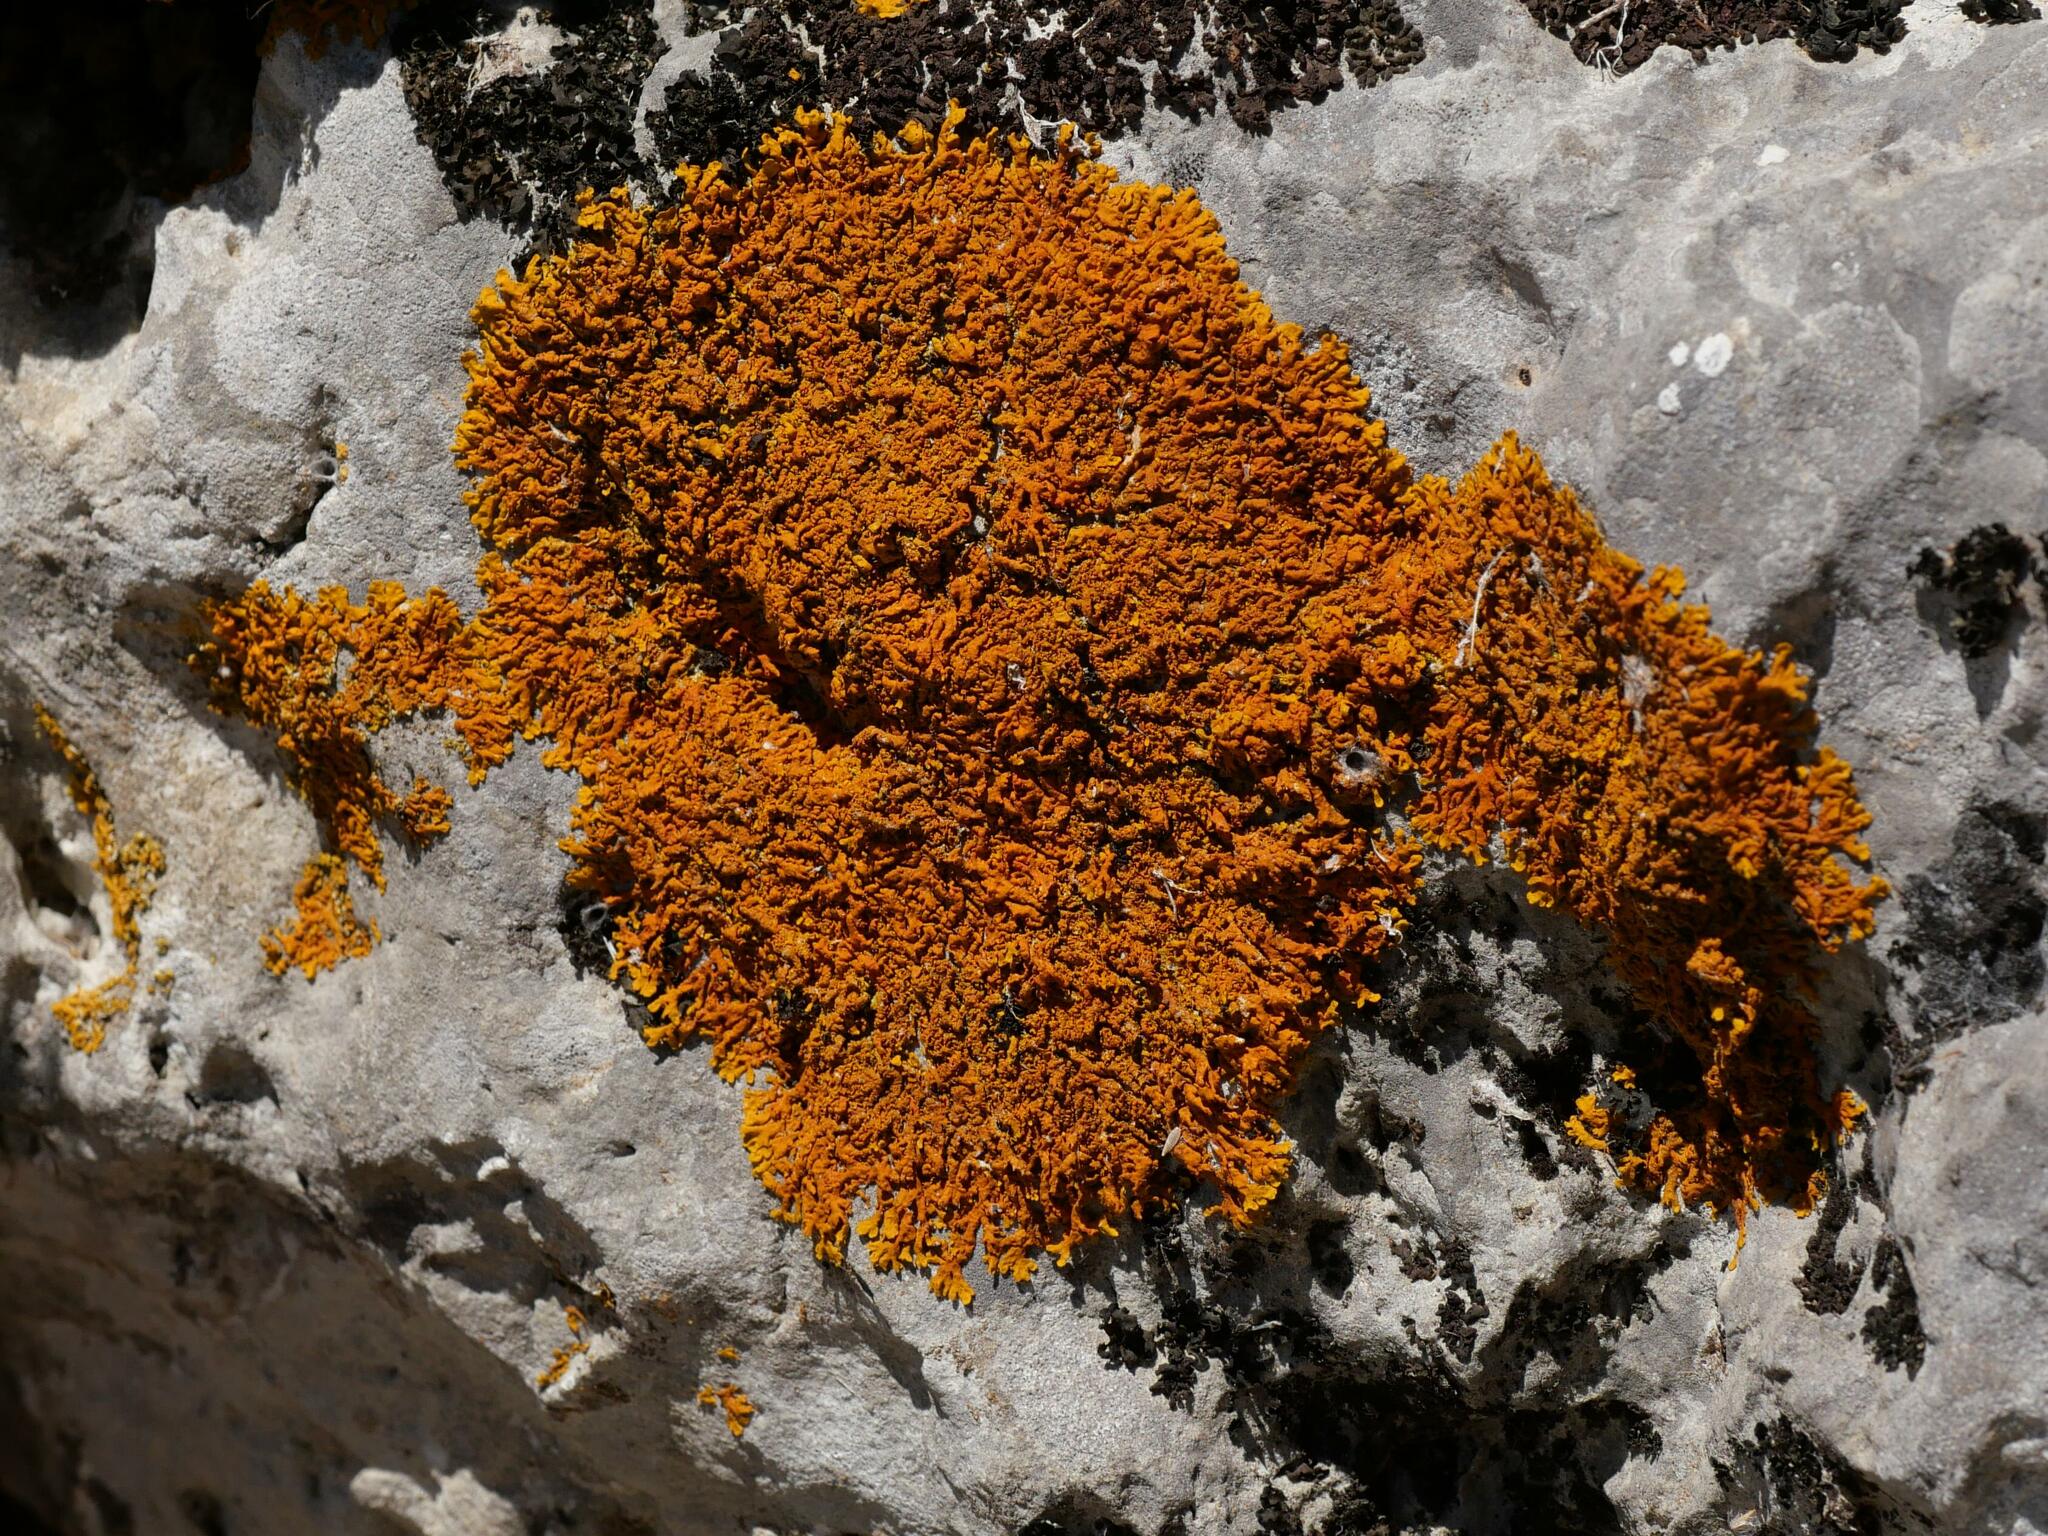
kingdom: Fungi
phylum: Ascomycota
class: Lecanoromycetes
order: Teloschistales
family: Teloschistaceae
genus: Xanthoria
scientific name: Xanthoria calcicola
